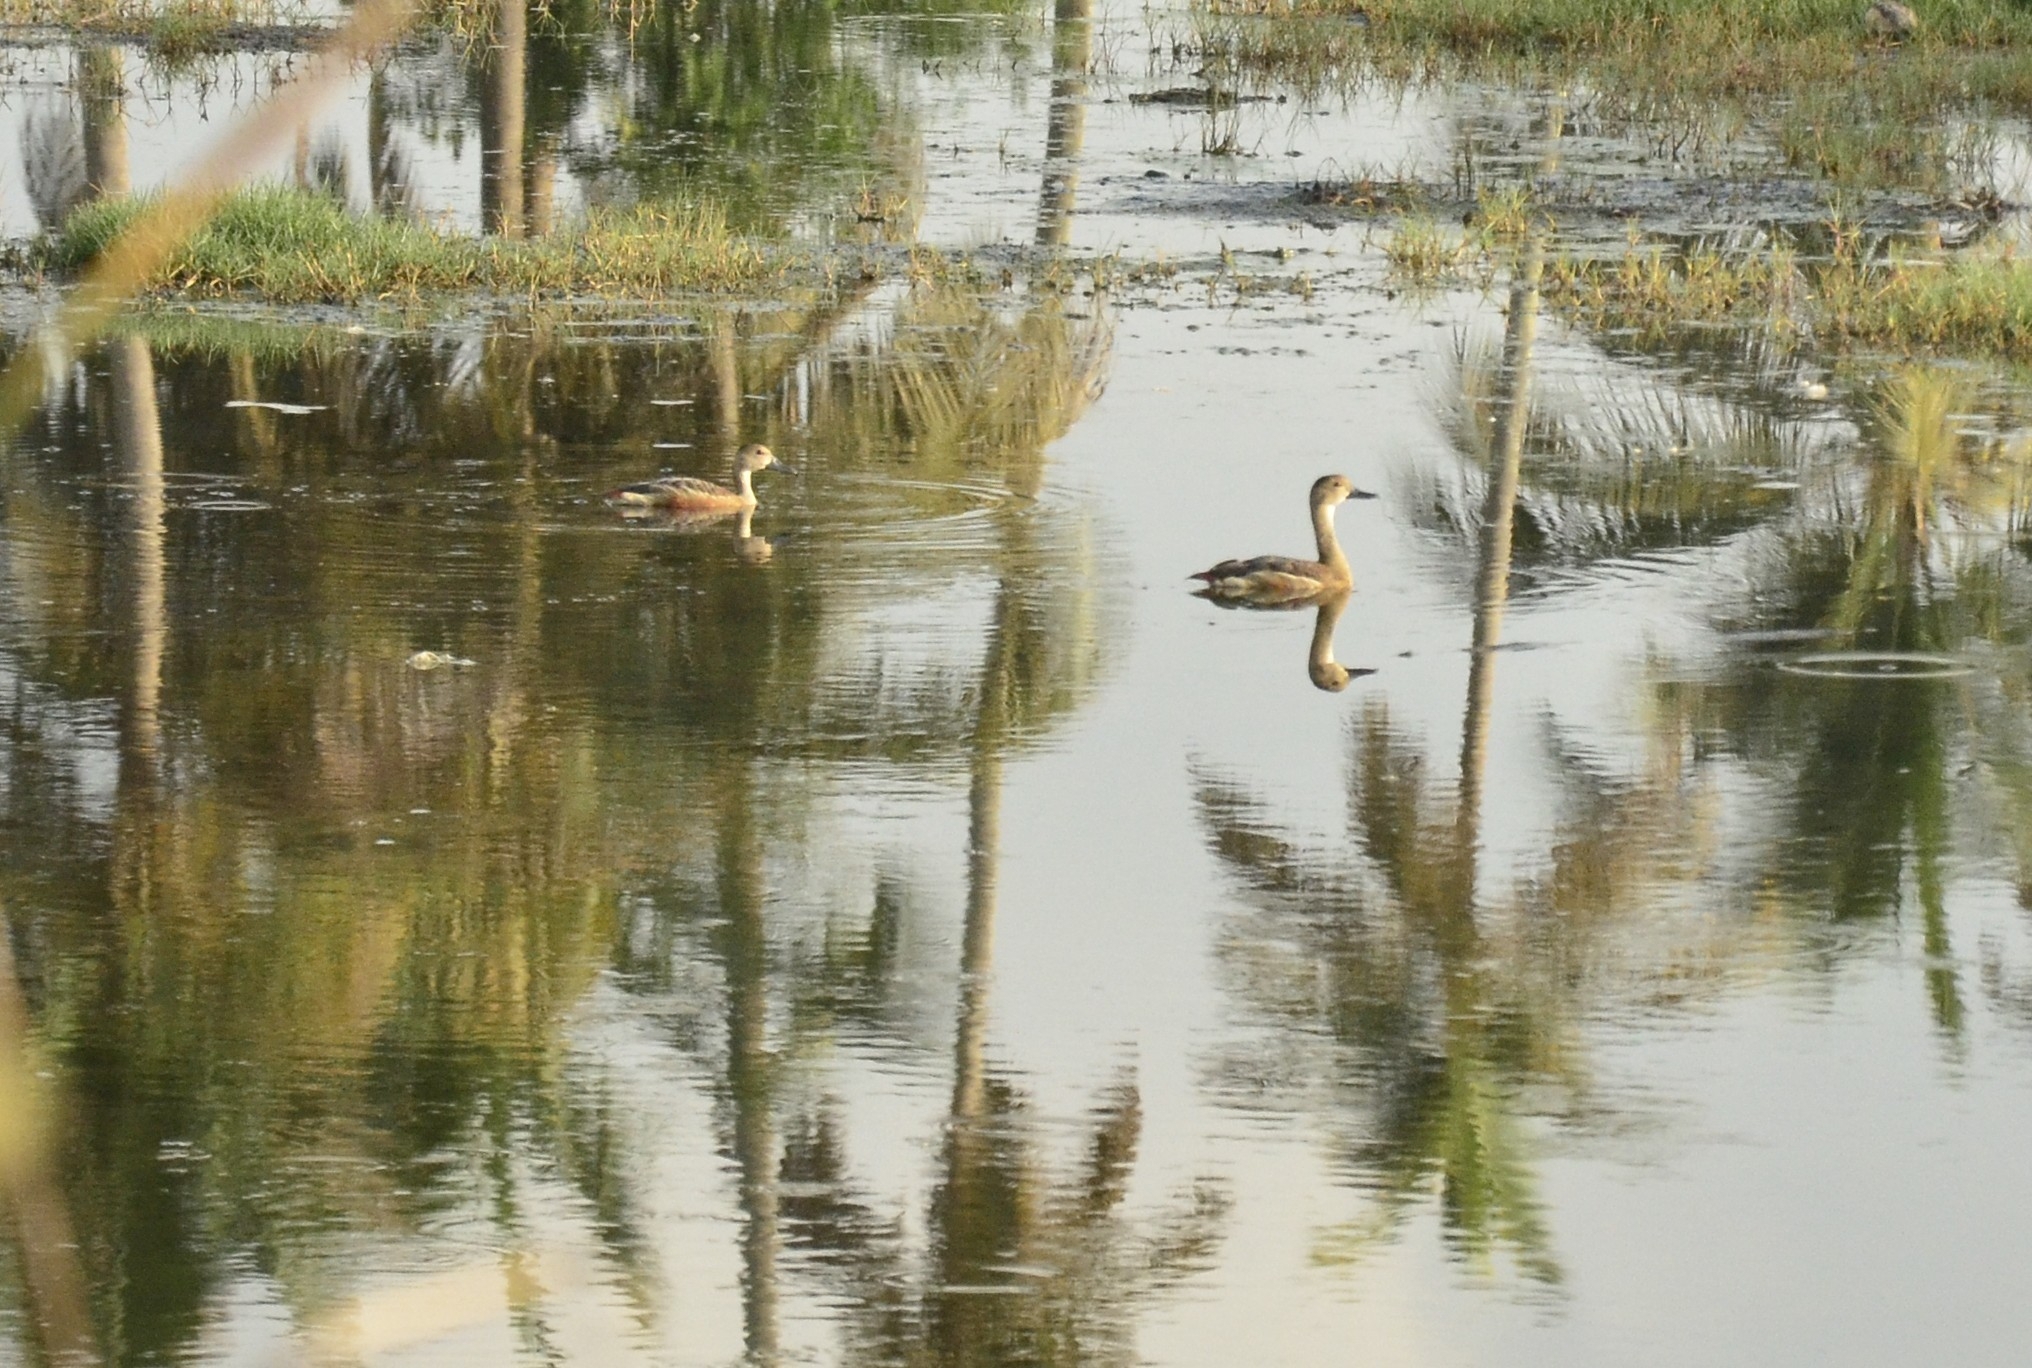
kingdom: Animalia
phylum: Chordata
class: Aves
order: Anseriformes
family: Anatidae
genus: Dendrocygna
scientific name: Dendrocygna javanica
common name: Lesser whistling-duck
